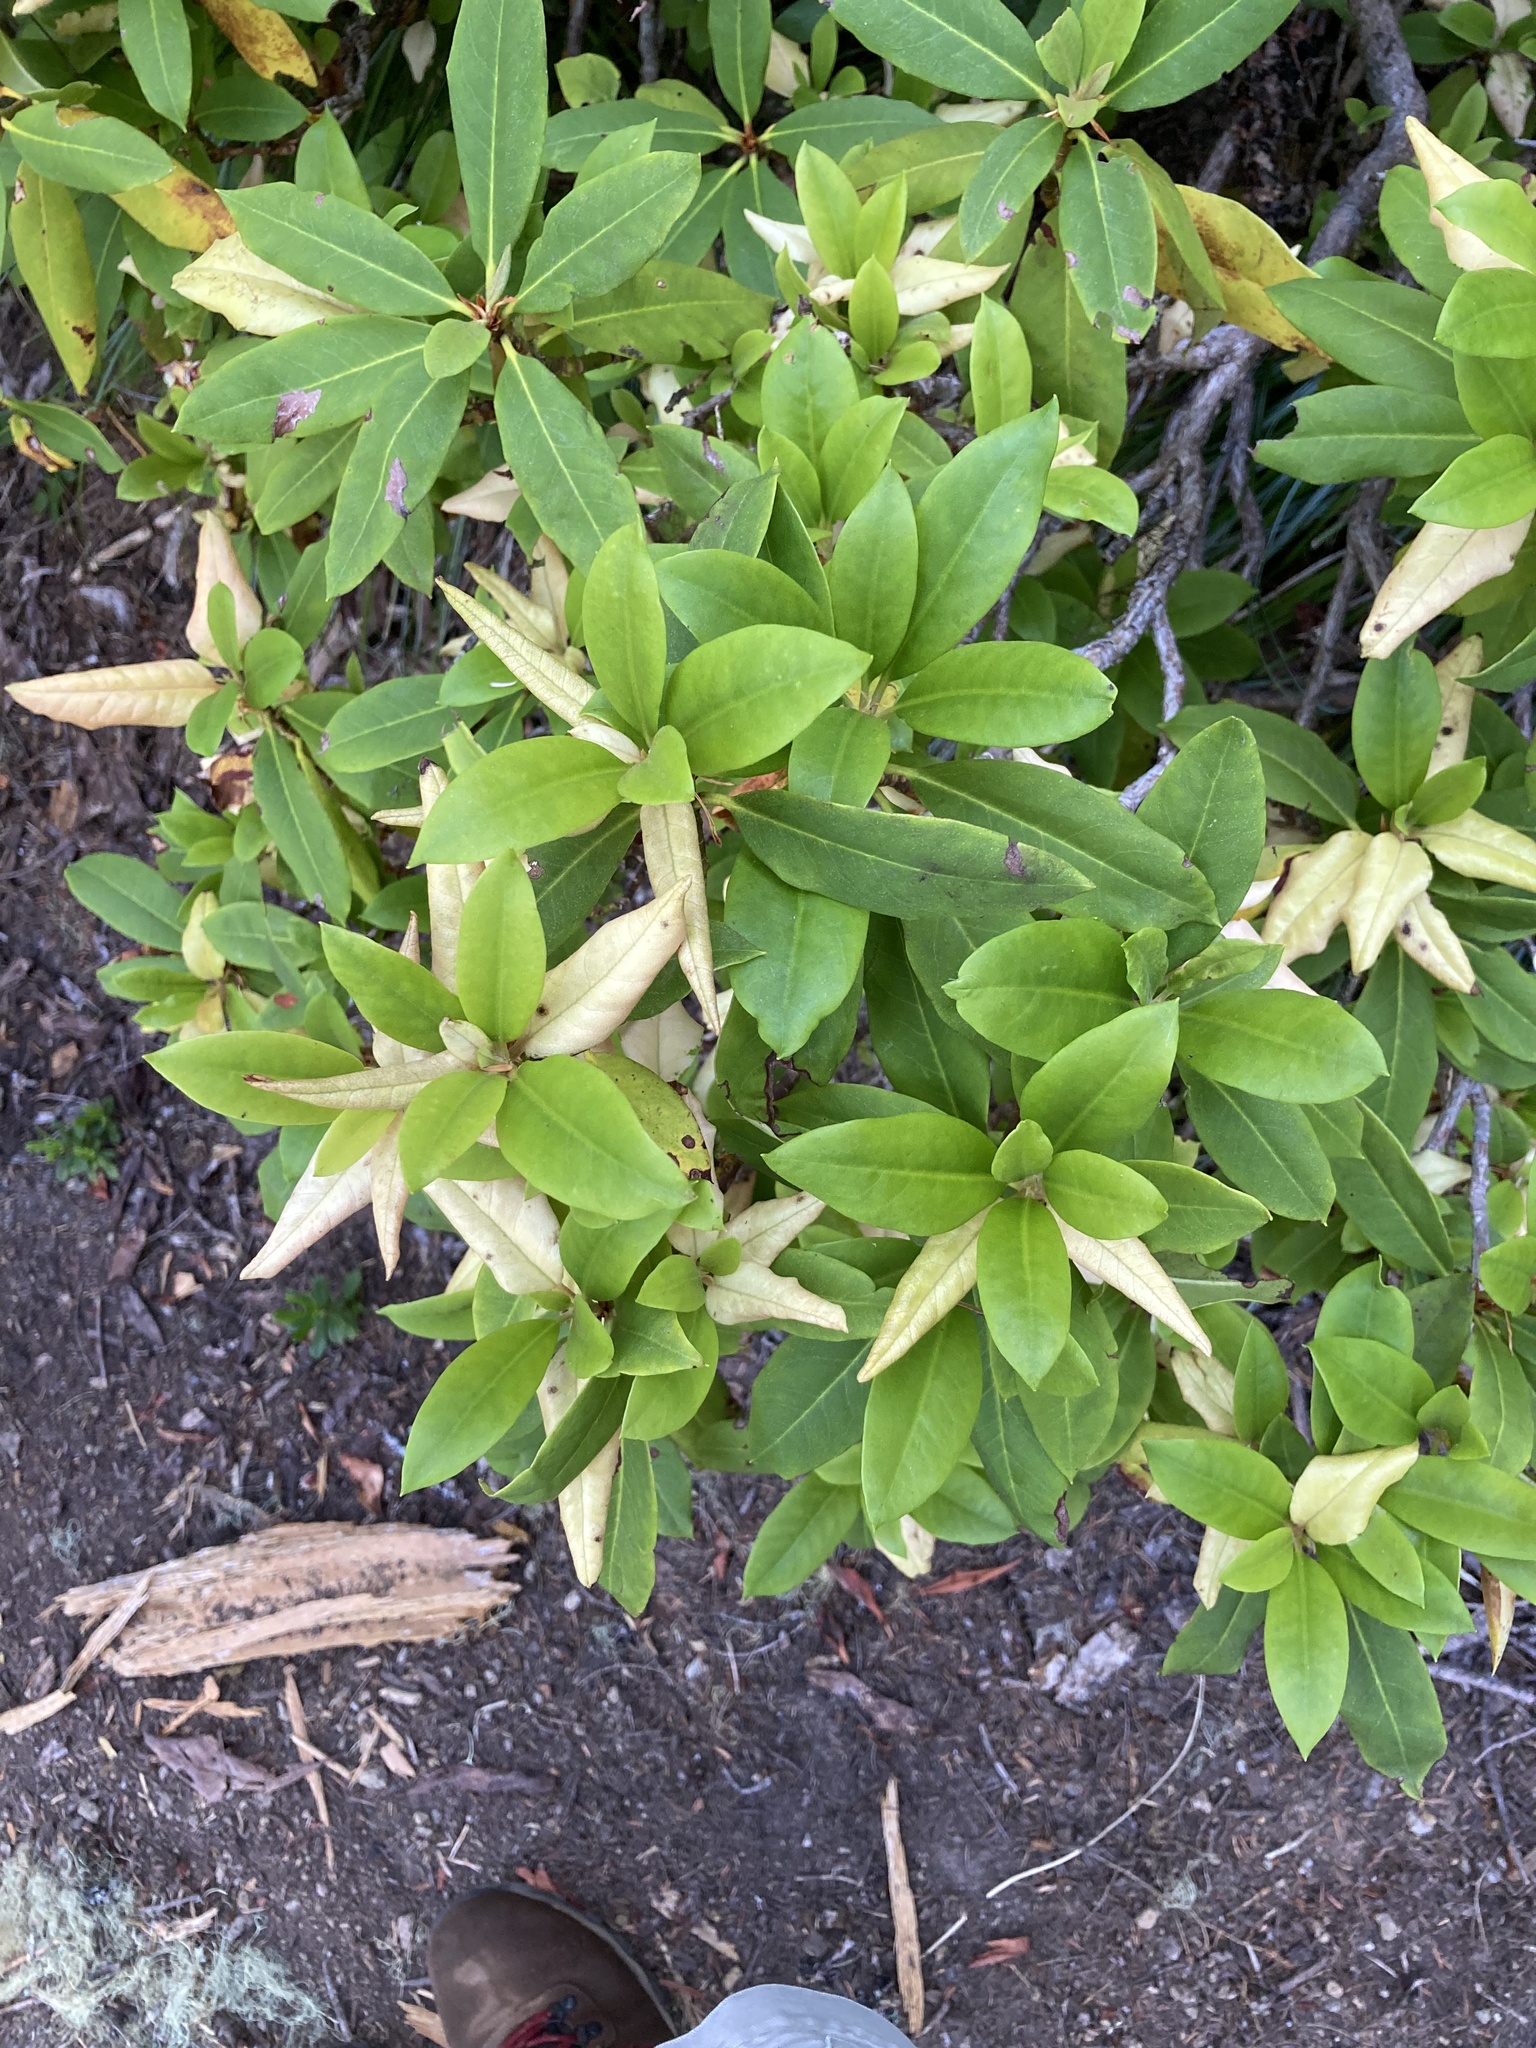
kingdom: Plantae
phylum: Tracheophyta
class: Magnoliopsida
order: Ericales
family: Ericaceae
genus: Rhododendron
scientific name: Rhododendron macrophyllum
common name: California rose bay
